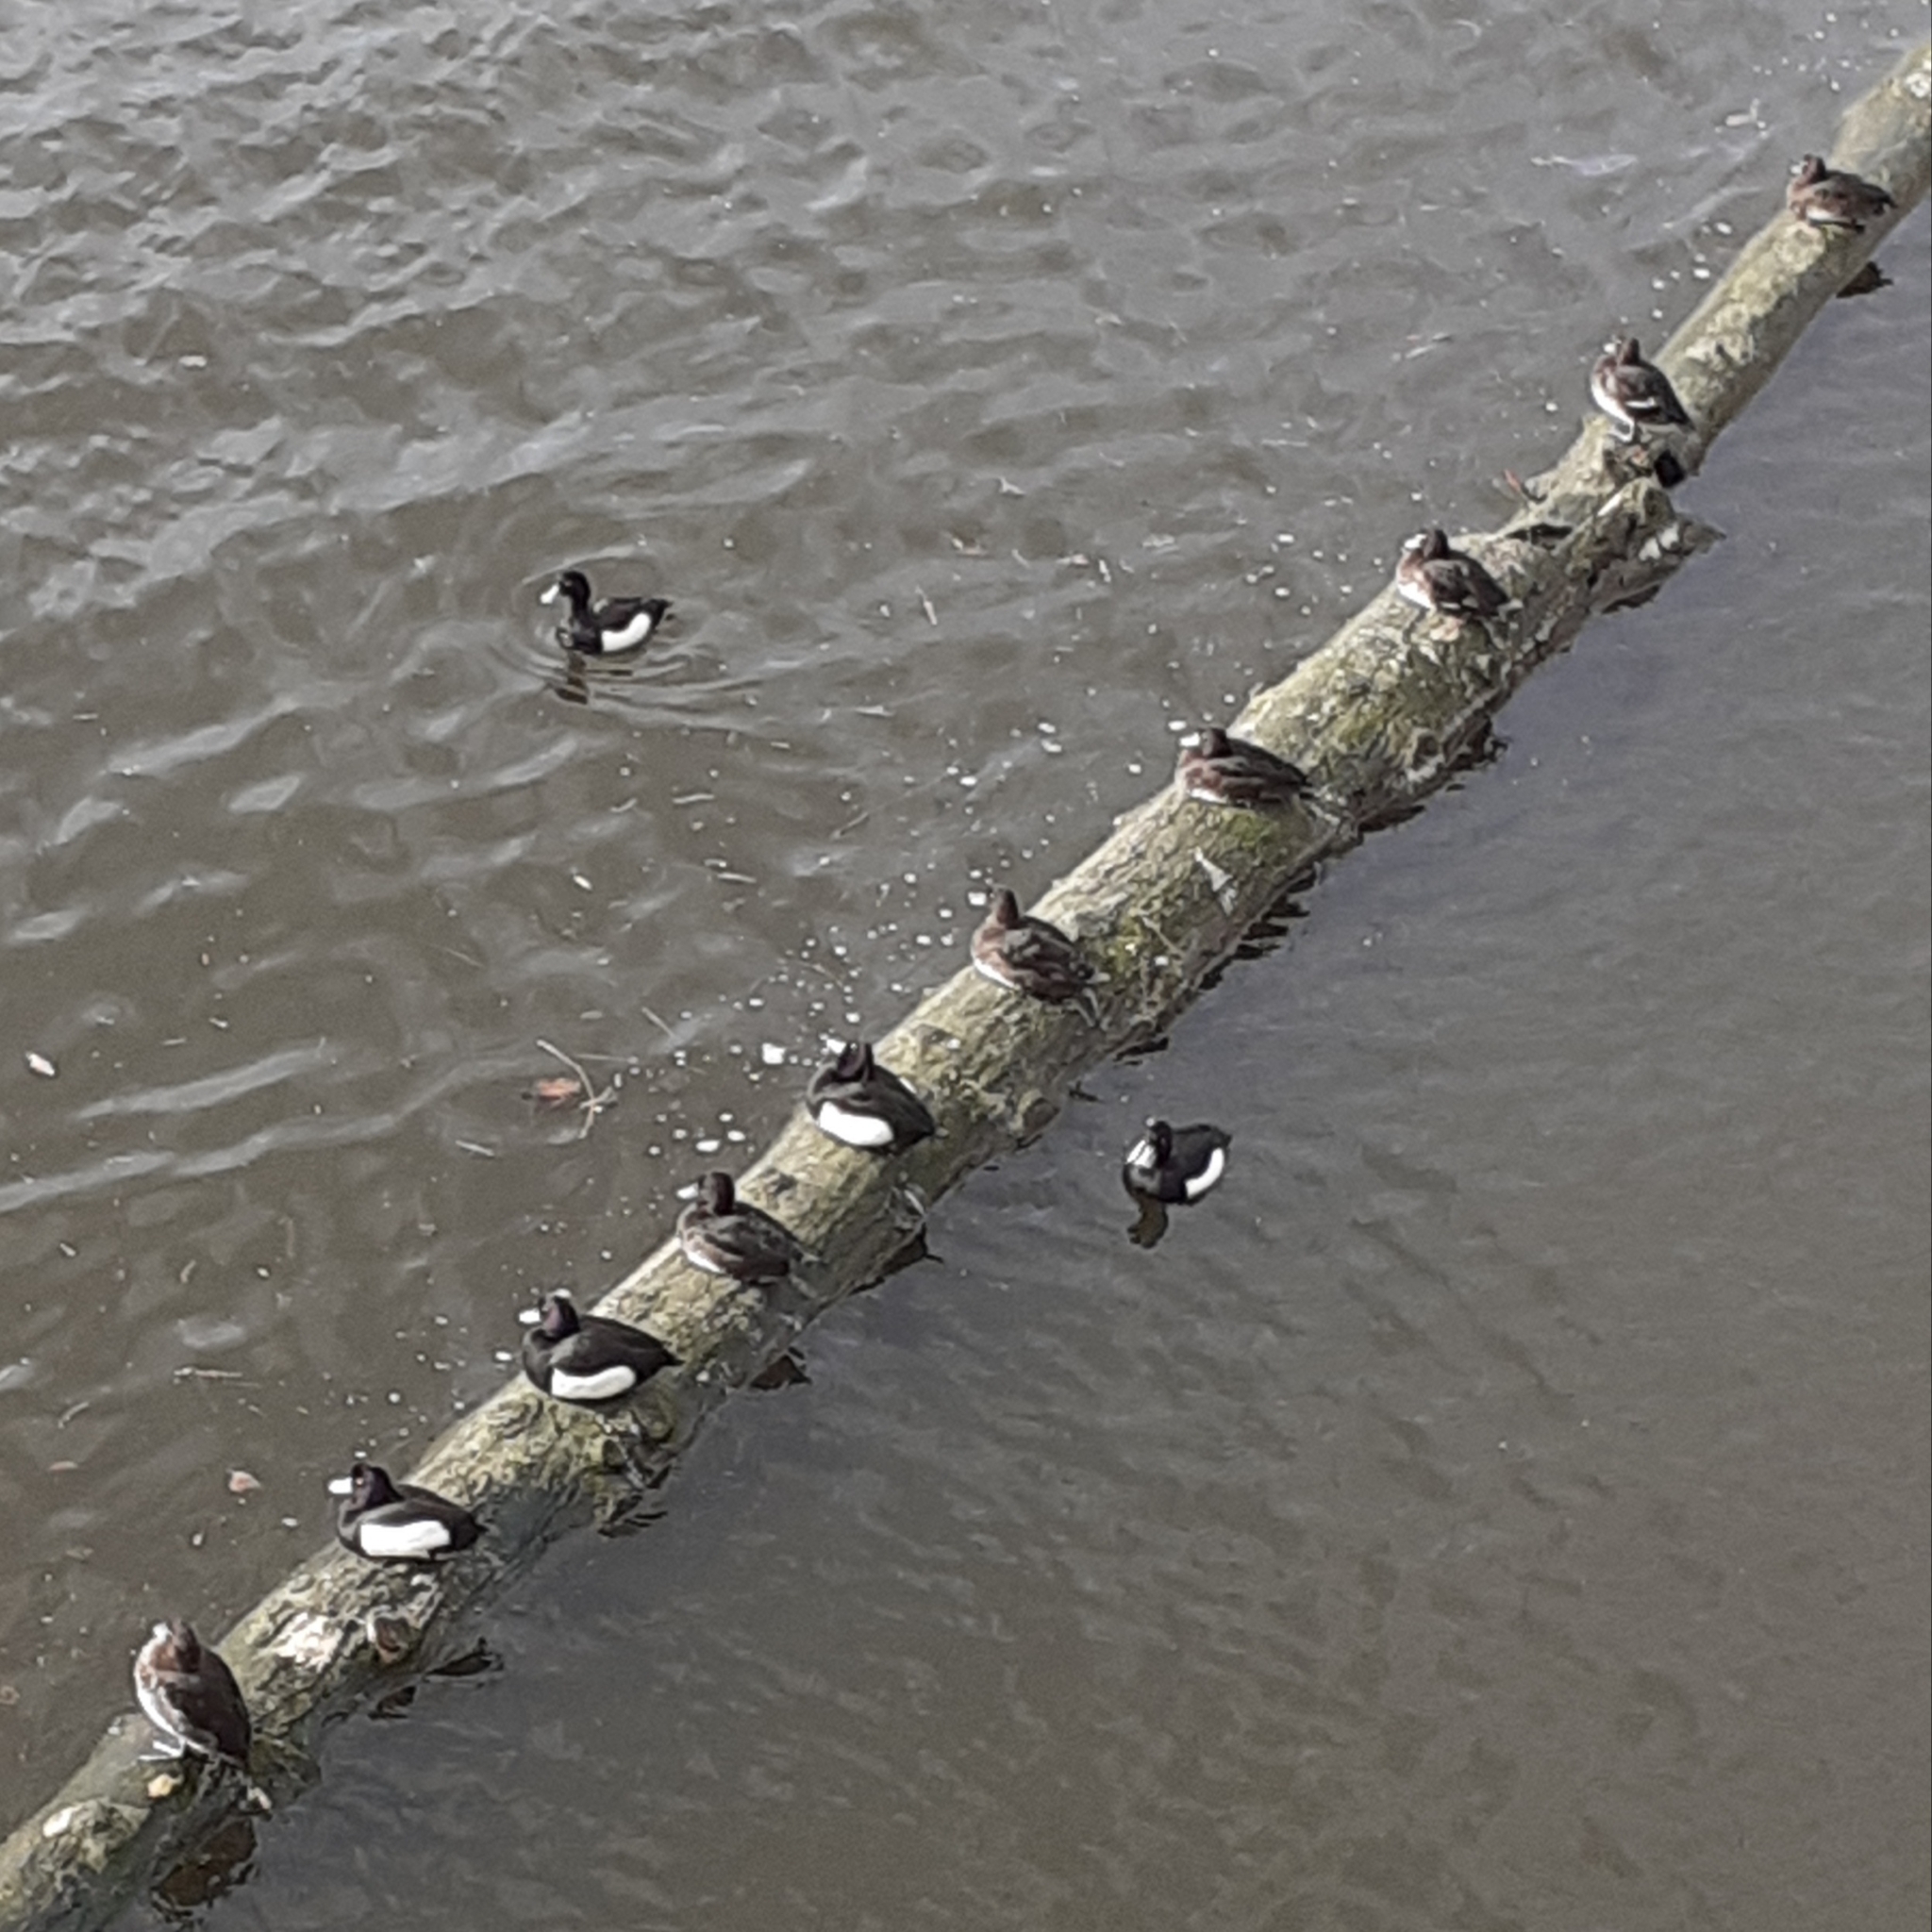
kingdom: Animalia
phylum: Chordata
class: Aves
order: Anseriformes
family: Anatidae
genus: Aythya
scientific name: Aythya fuligula
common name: Tufted duck
